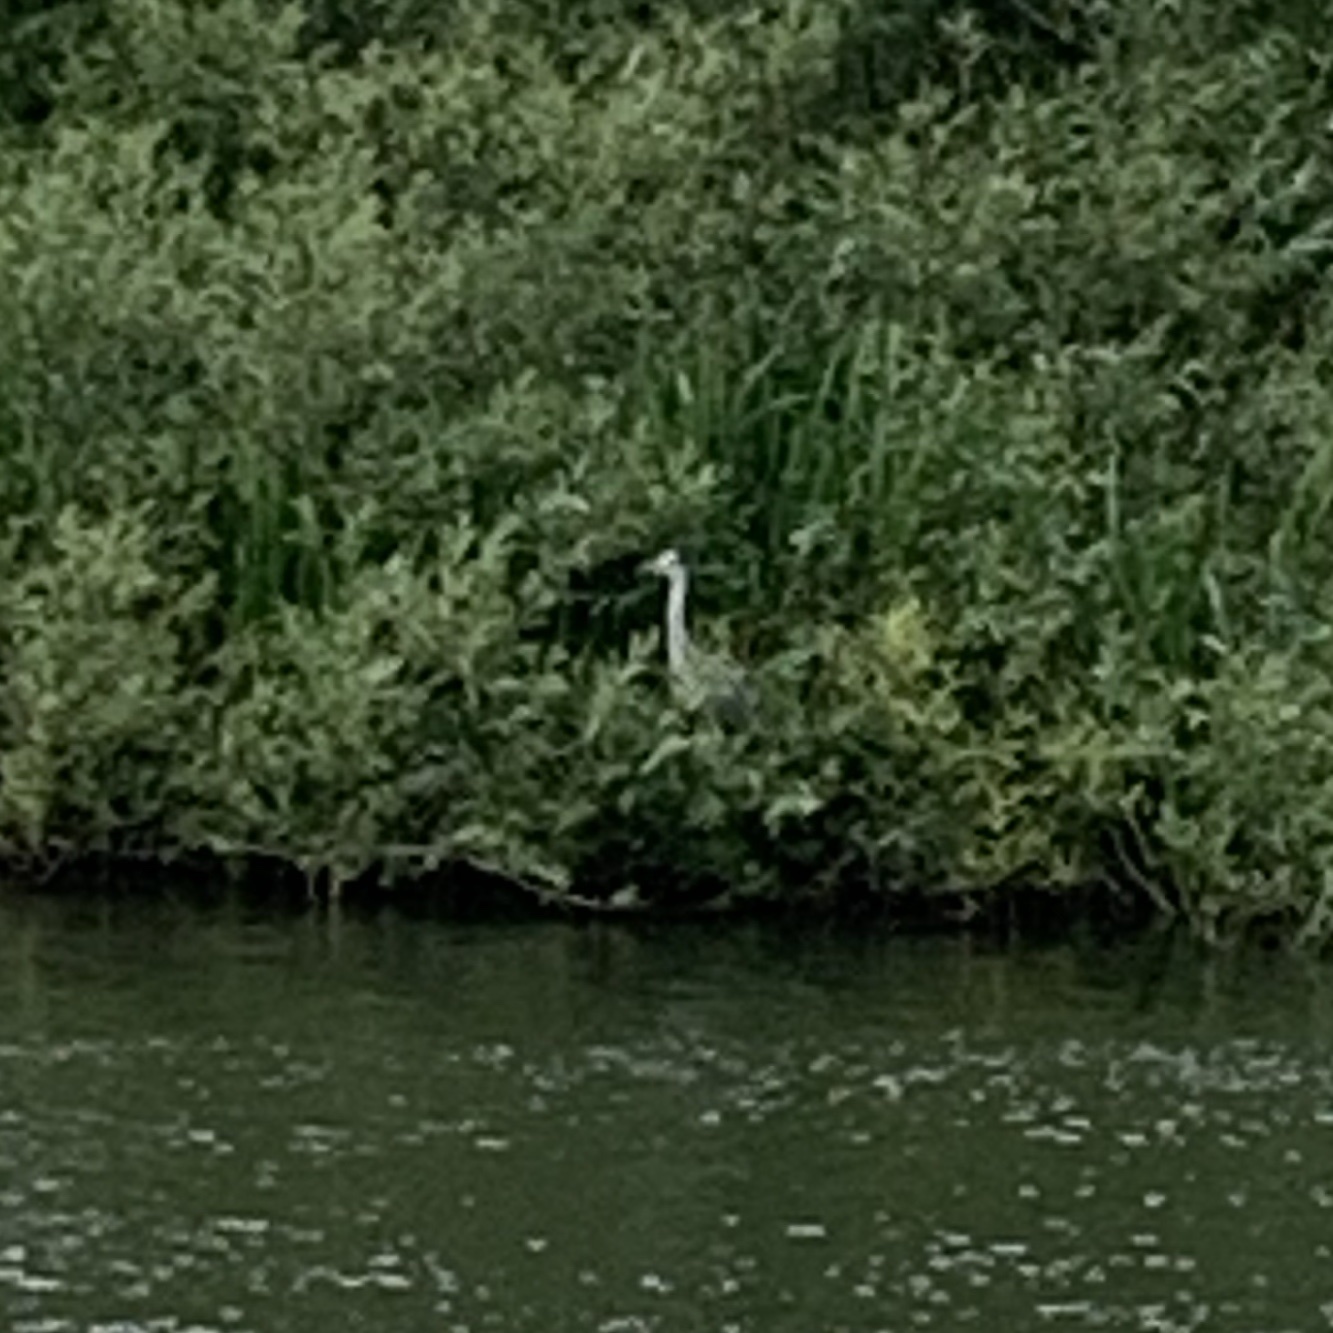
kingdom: Animalia
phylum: Chordata
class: Aves
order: Pelecaniformes
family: Ardeidae
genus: Ardea
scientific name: Ardea cinerea
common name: Grey heron
